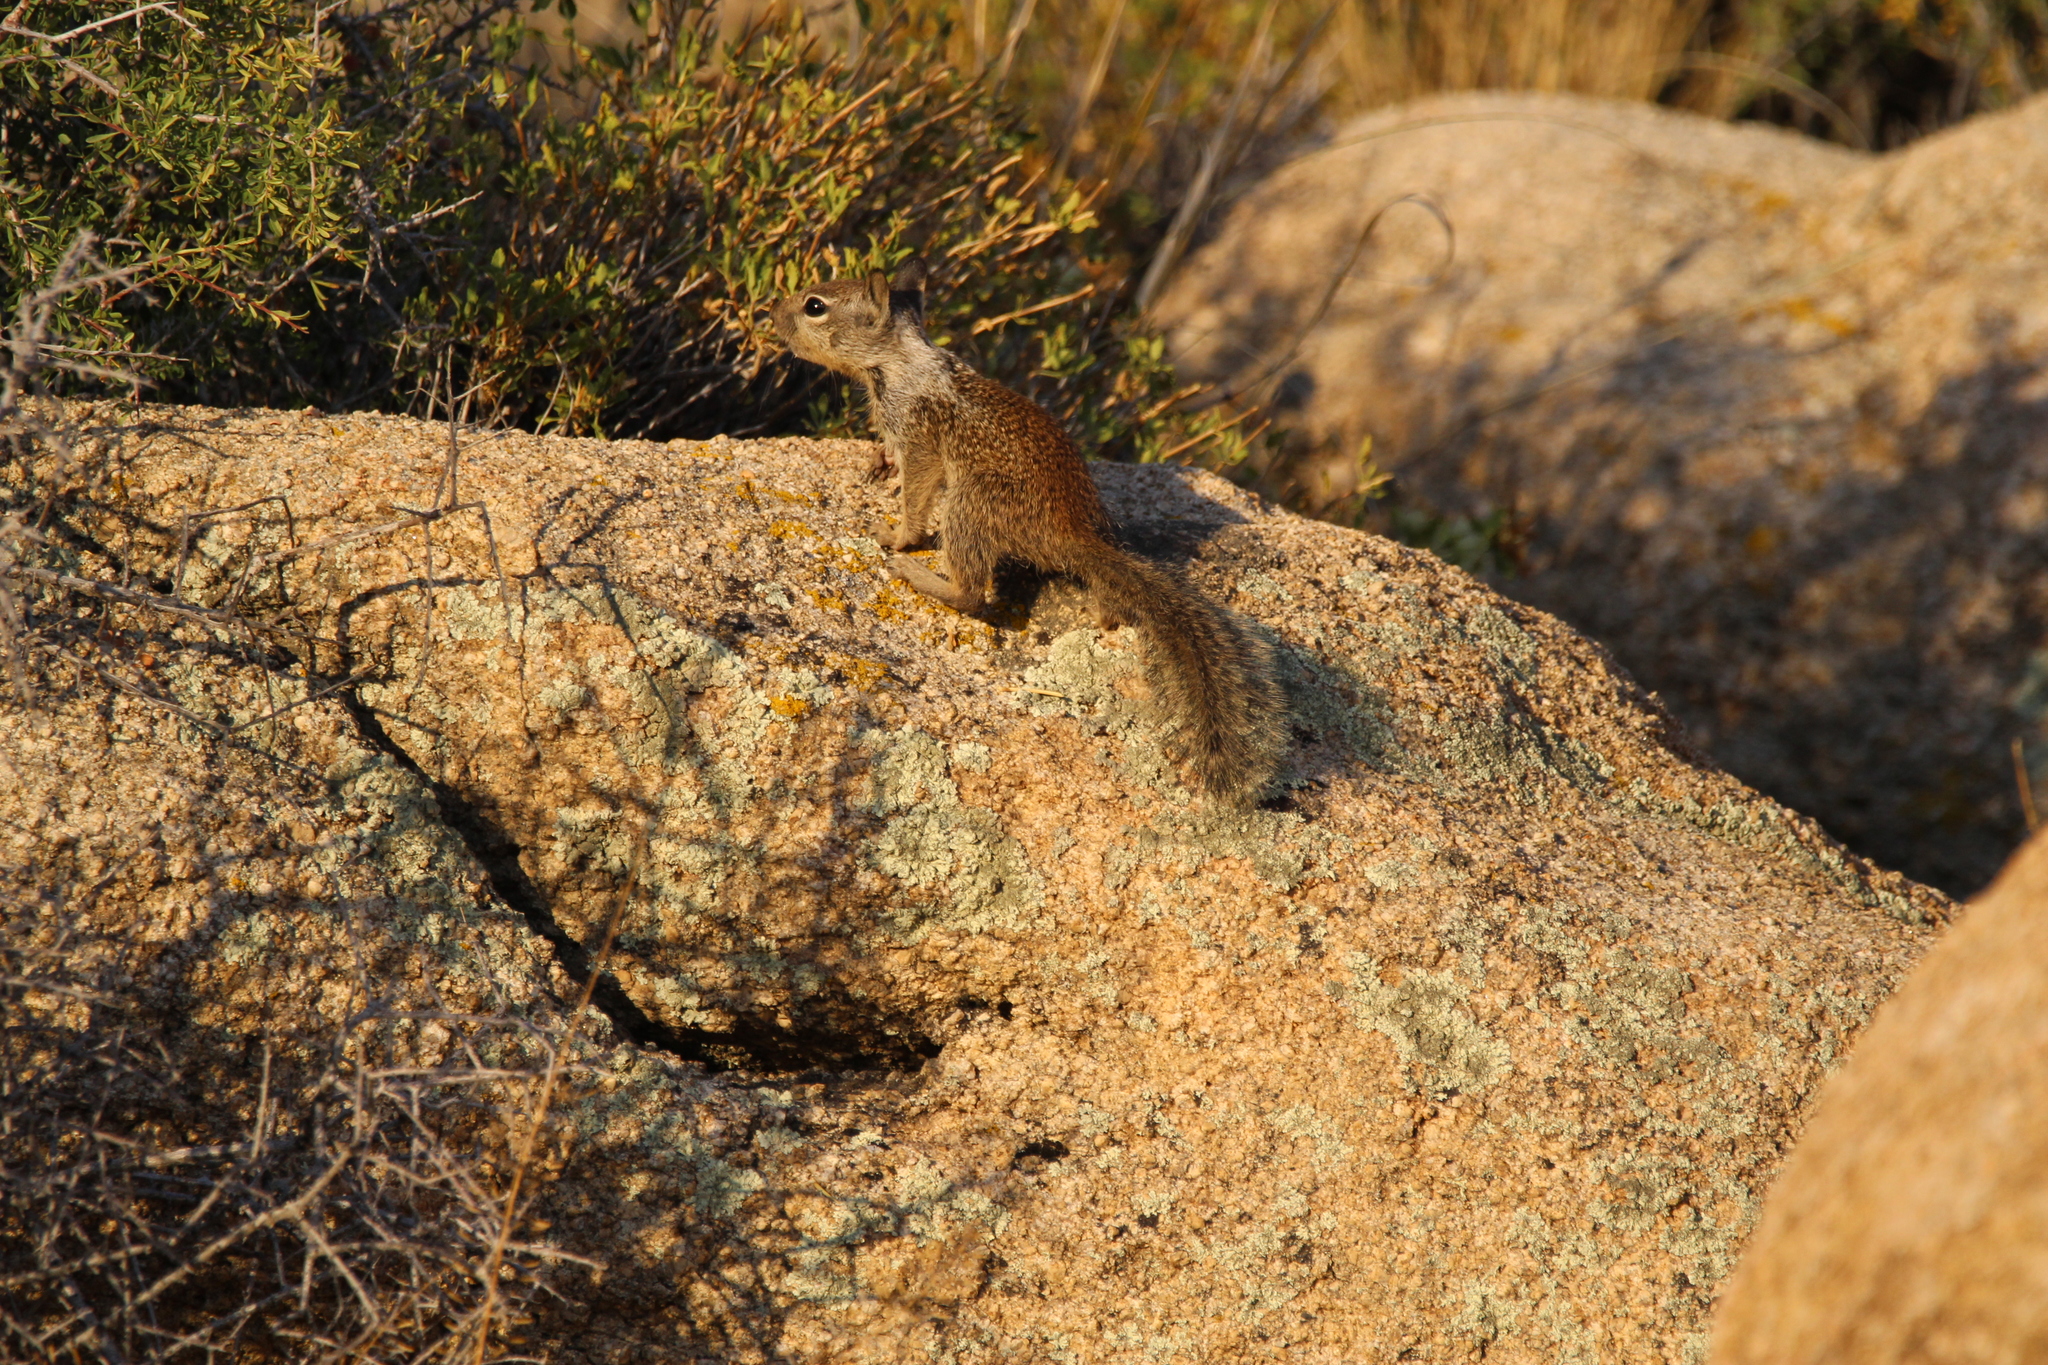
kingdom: Animalia
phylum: Chordata
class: Mammalia
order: Rodentia
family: Sciuridae
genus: Otospermophilus
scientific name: Otospermophilus beecheyi
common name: California ground squirrel
